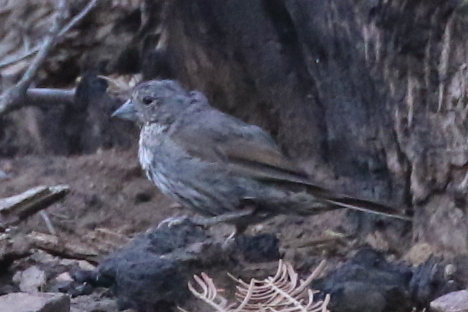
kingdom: Animalia
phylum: Chordata
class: Aves
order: Passeriformes
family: Passerellidae
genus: Passerella
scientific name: Passerella iliaca
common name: Fox sparrow
